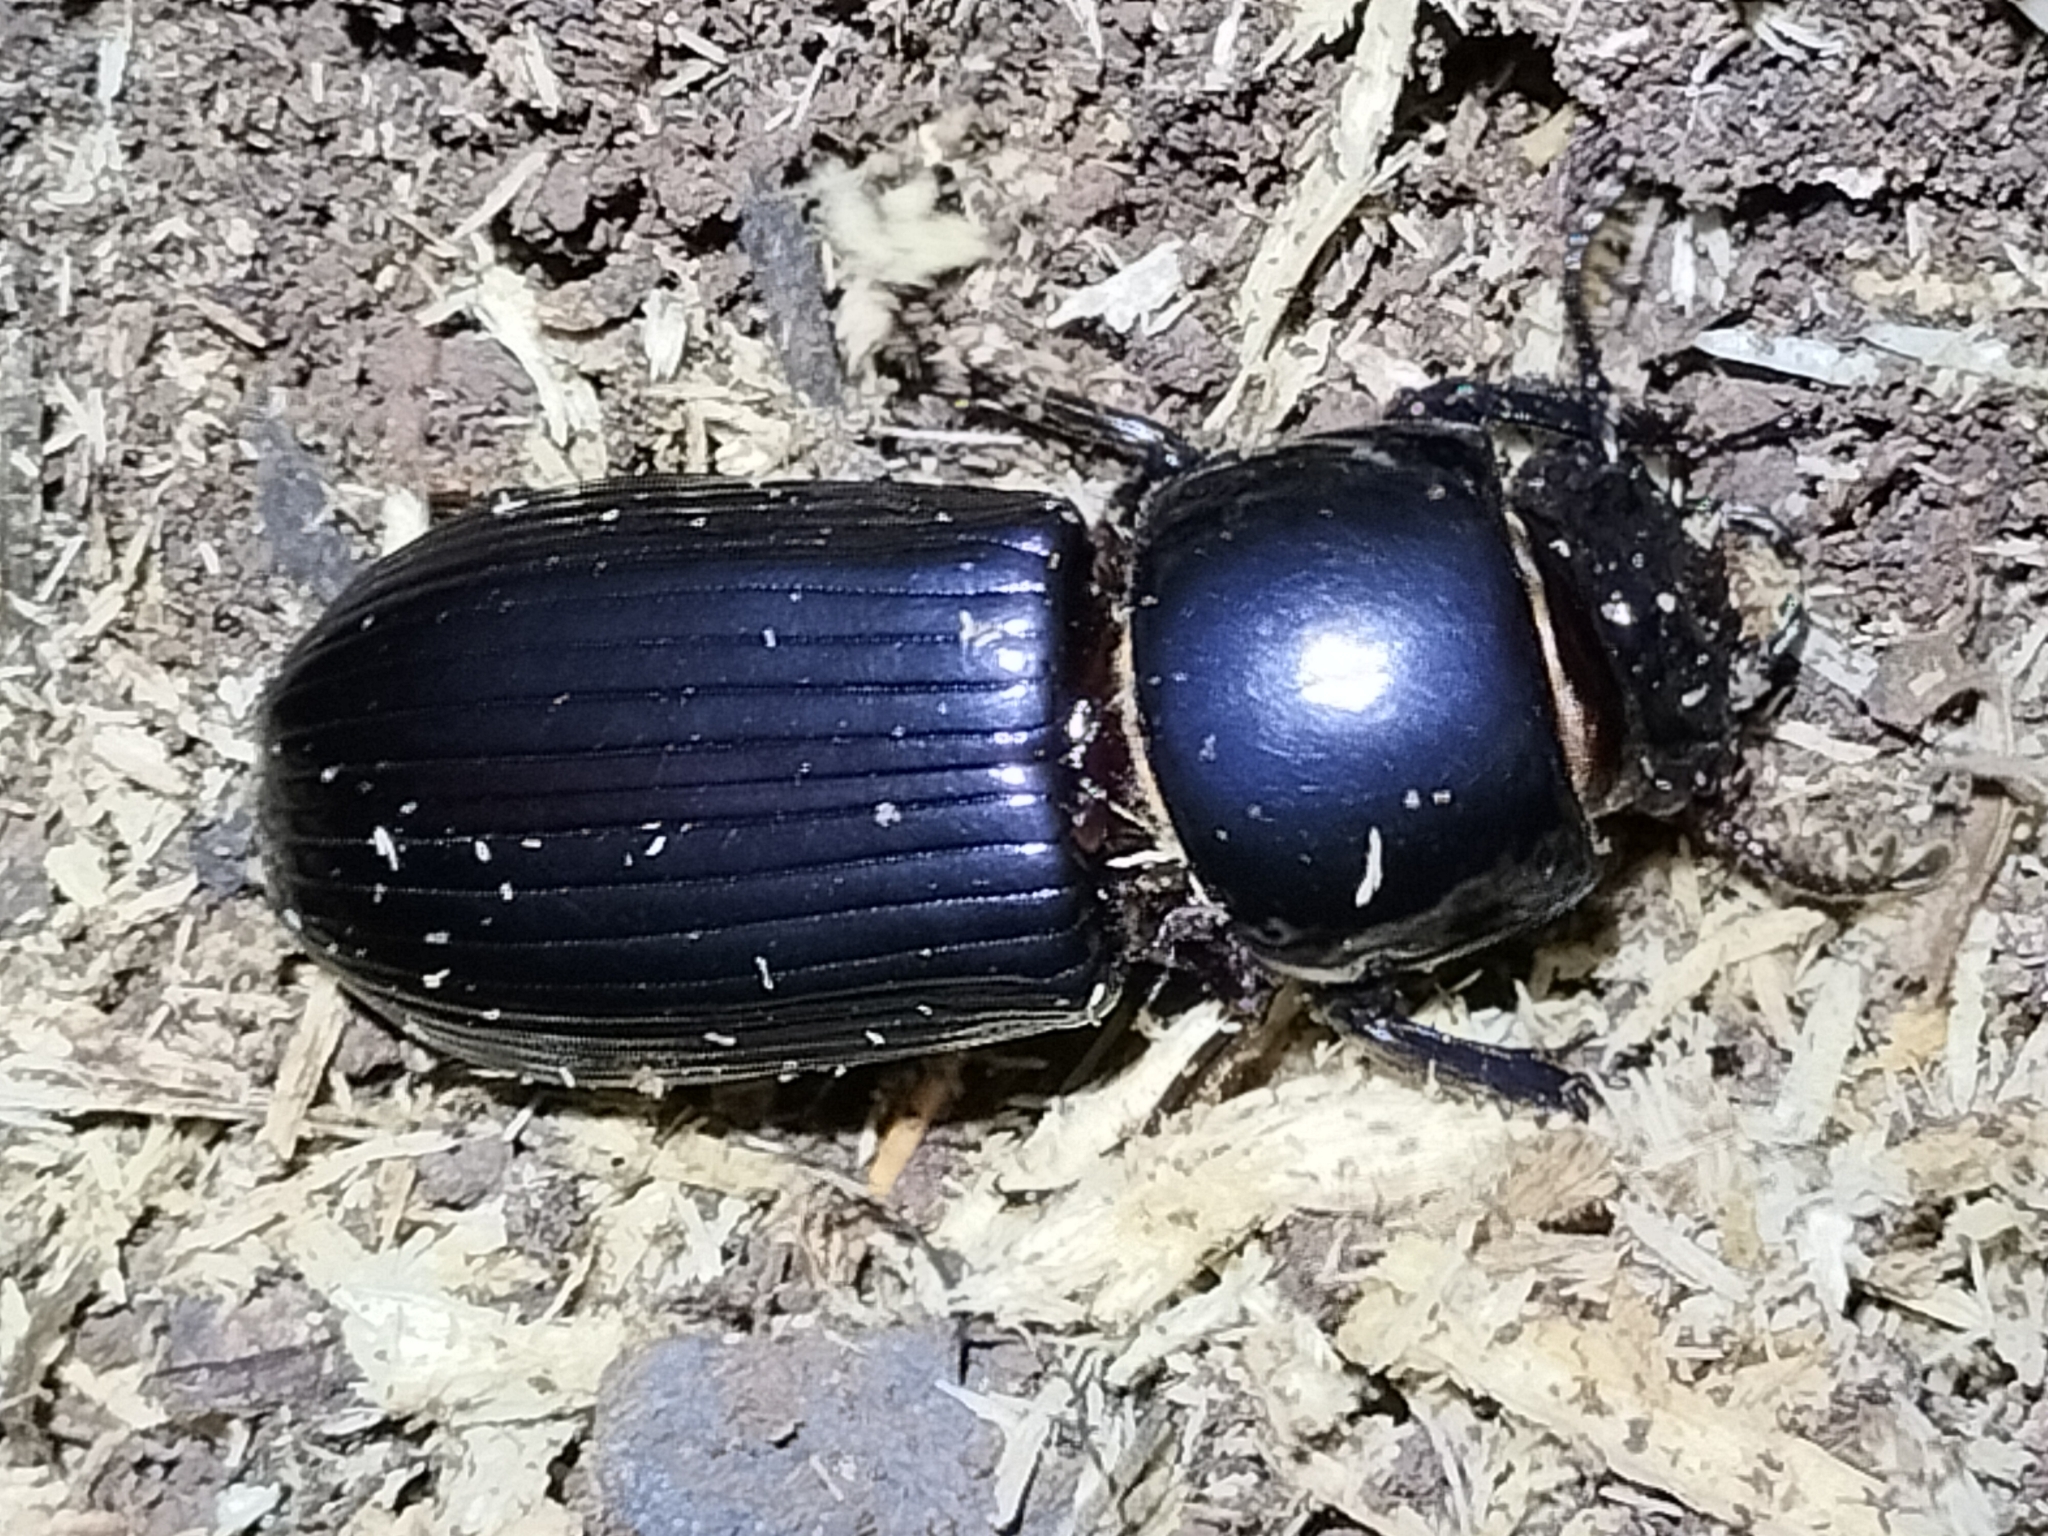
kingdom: Animalia
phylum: Arthropoda
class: Insecta
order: Coleoptera
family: Passalidae
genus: Mastachilus
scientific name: Mastachilus australasicus
